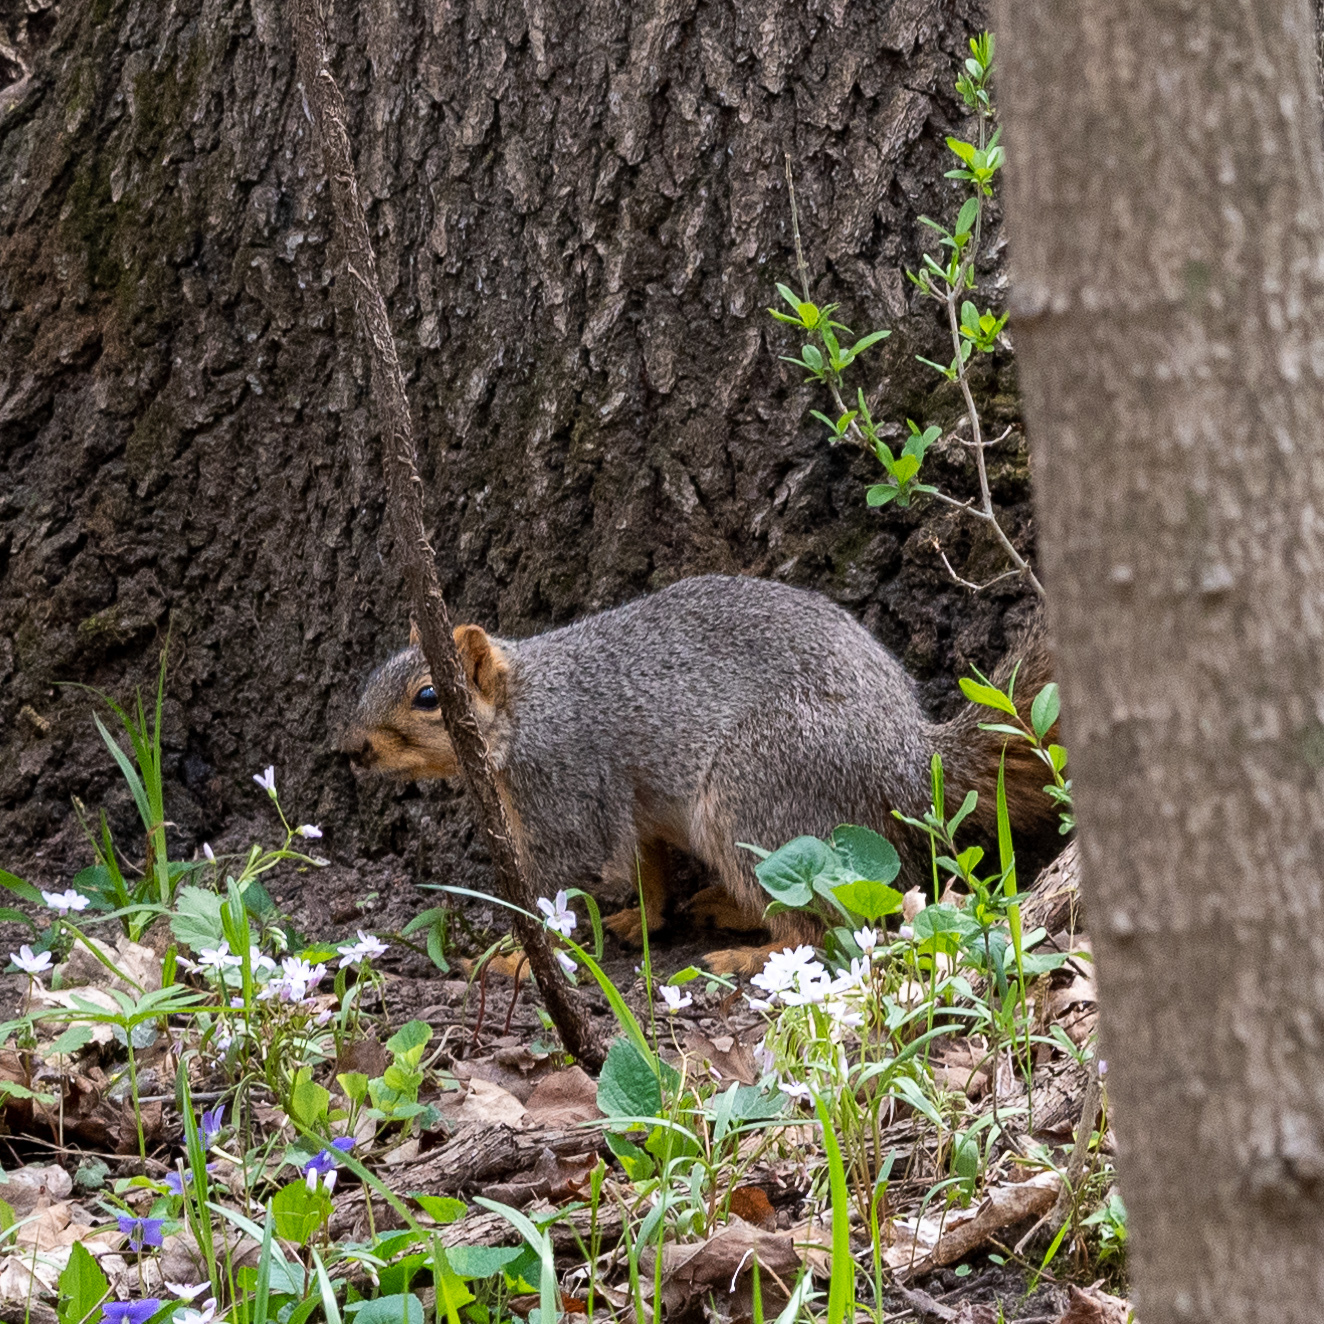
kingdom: Animalia
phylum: Chordata
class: Mammalia
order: Rodentia
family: Sciuridae
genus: Sciurus
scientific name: Sciurus niger
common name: Fox squirrel
